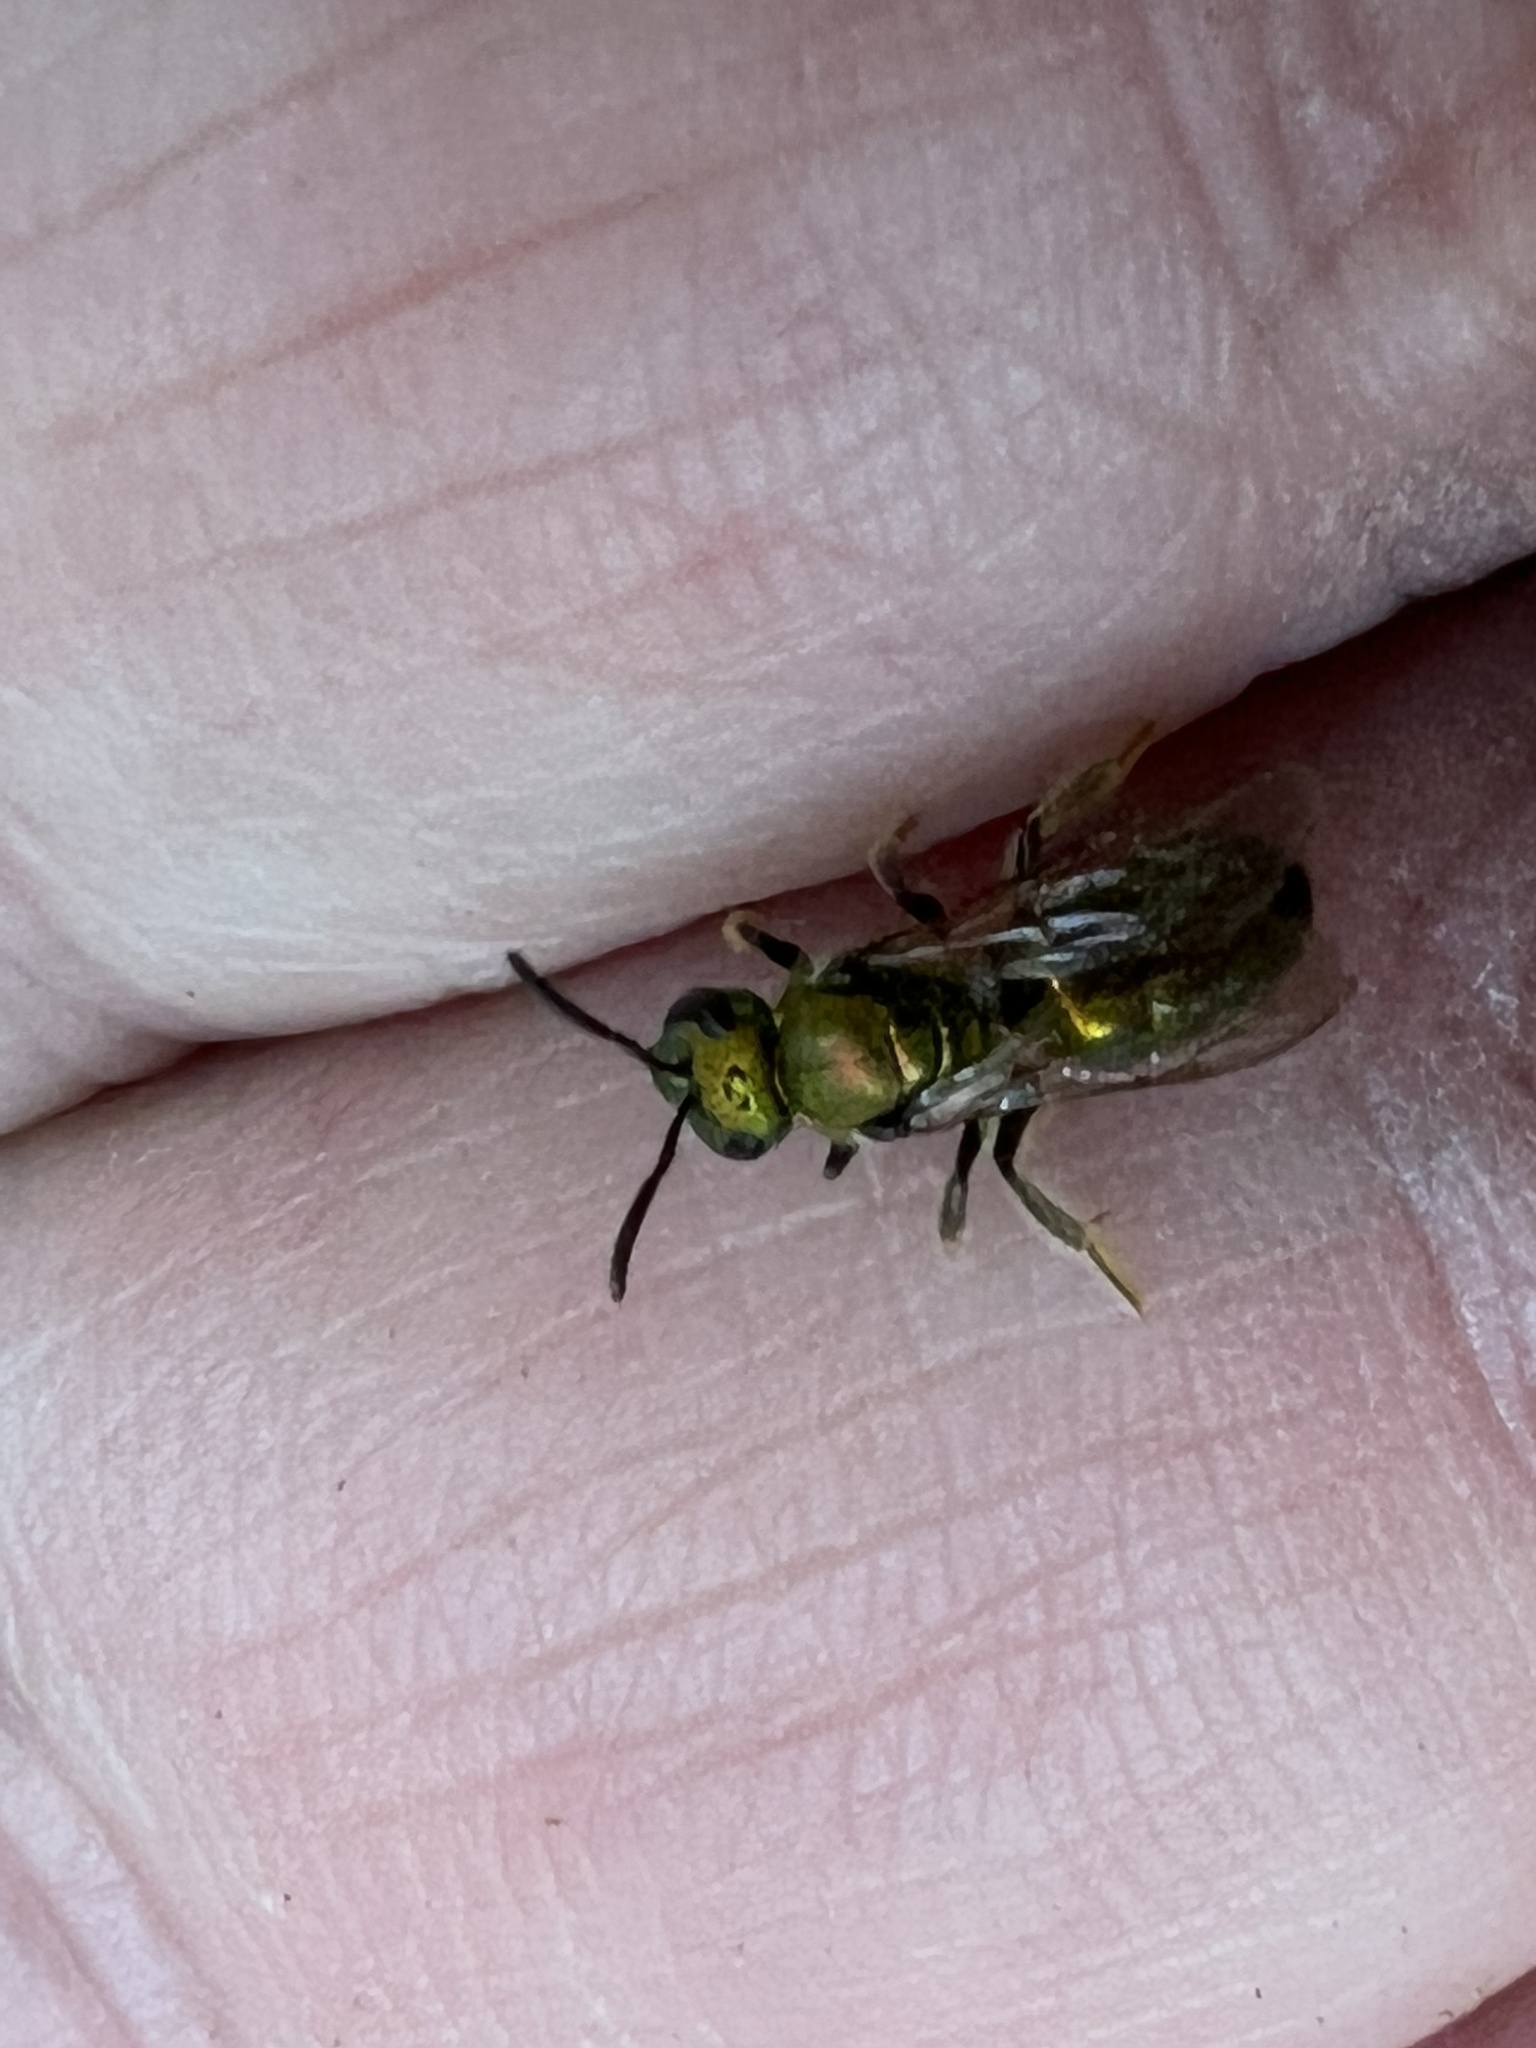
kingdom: Animalia
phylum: Arthropoda
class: Insecta
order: Hymenoptera
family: Halictidae
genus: Augochlora
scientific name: Augochlora pura
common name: Pure green sweat bee
